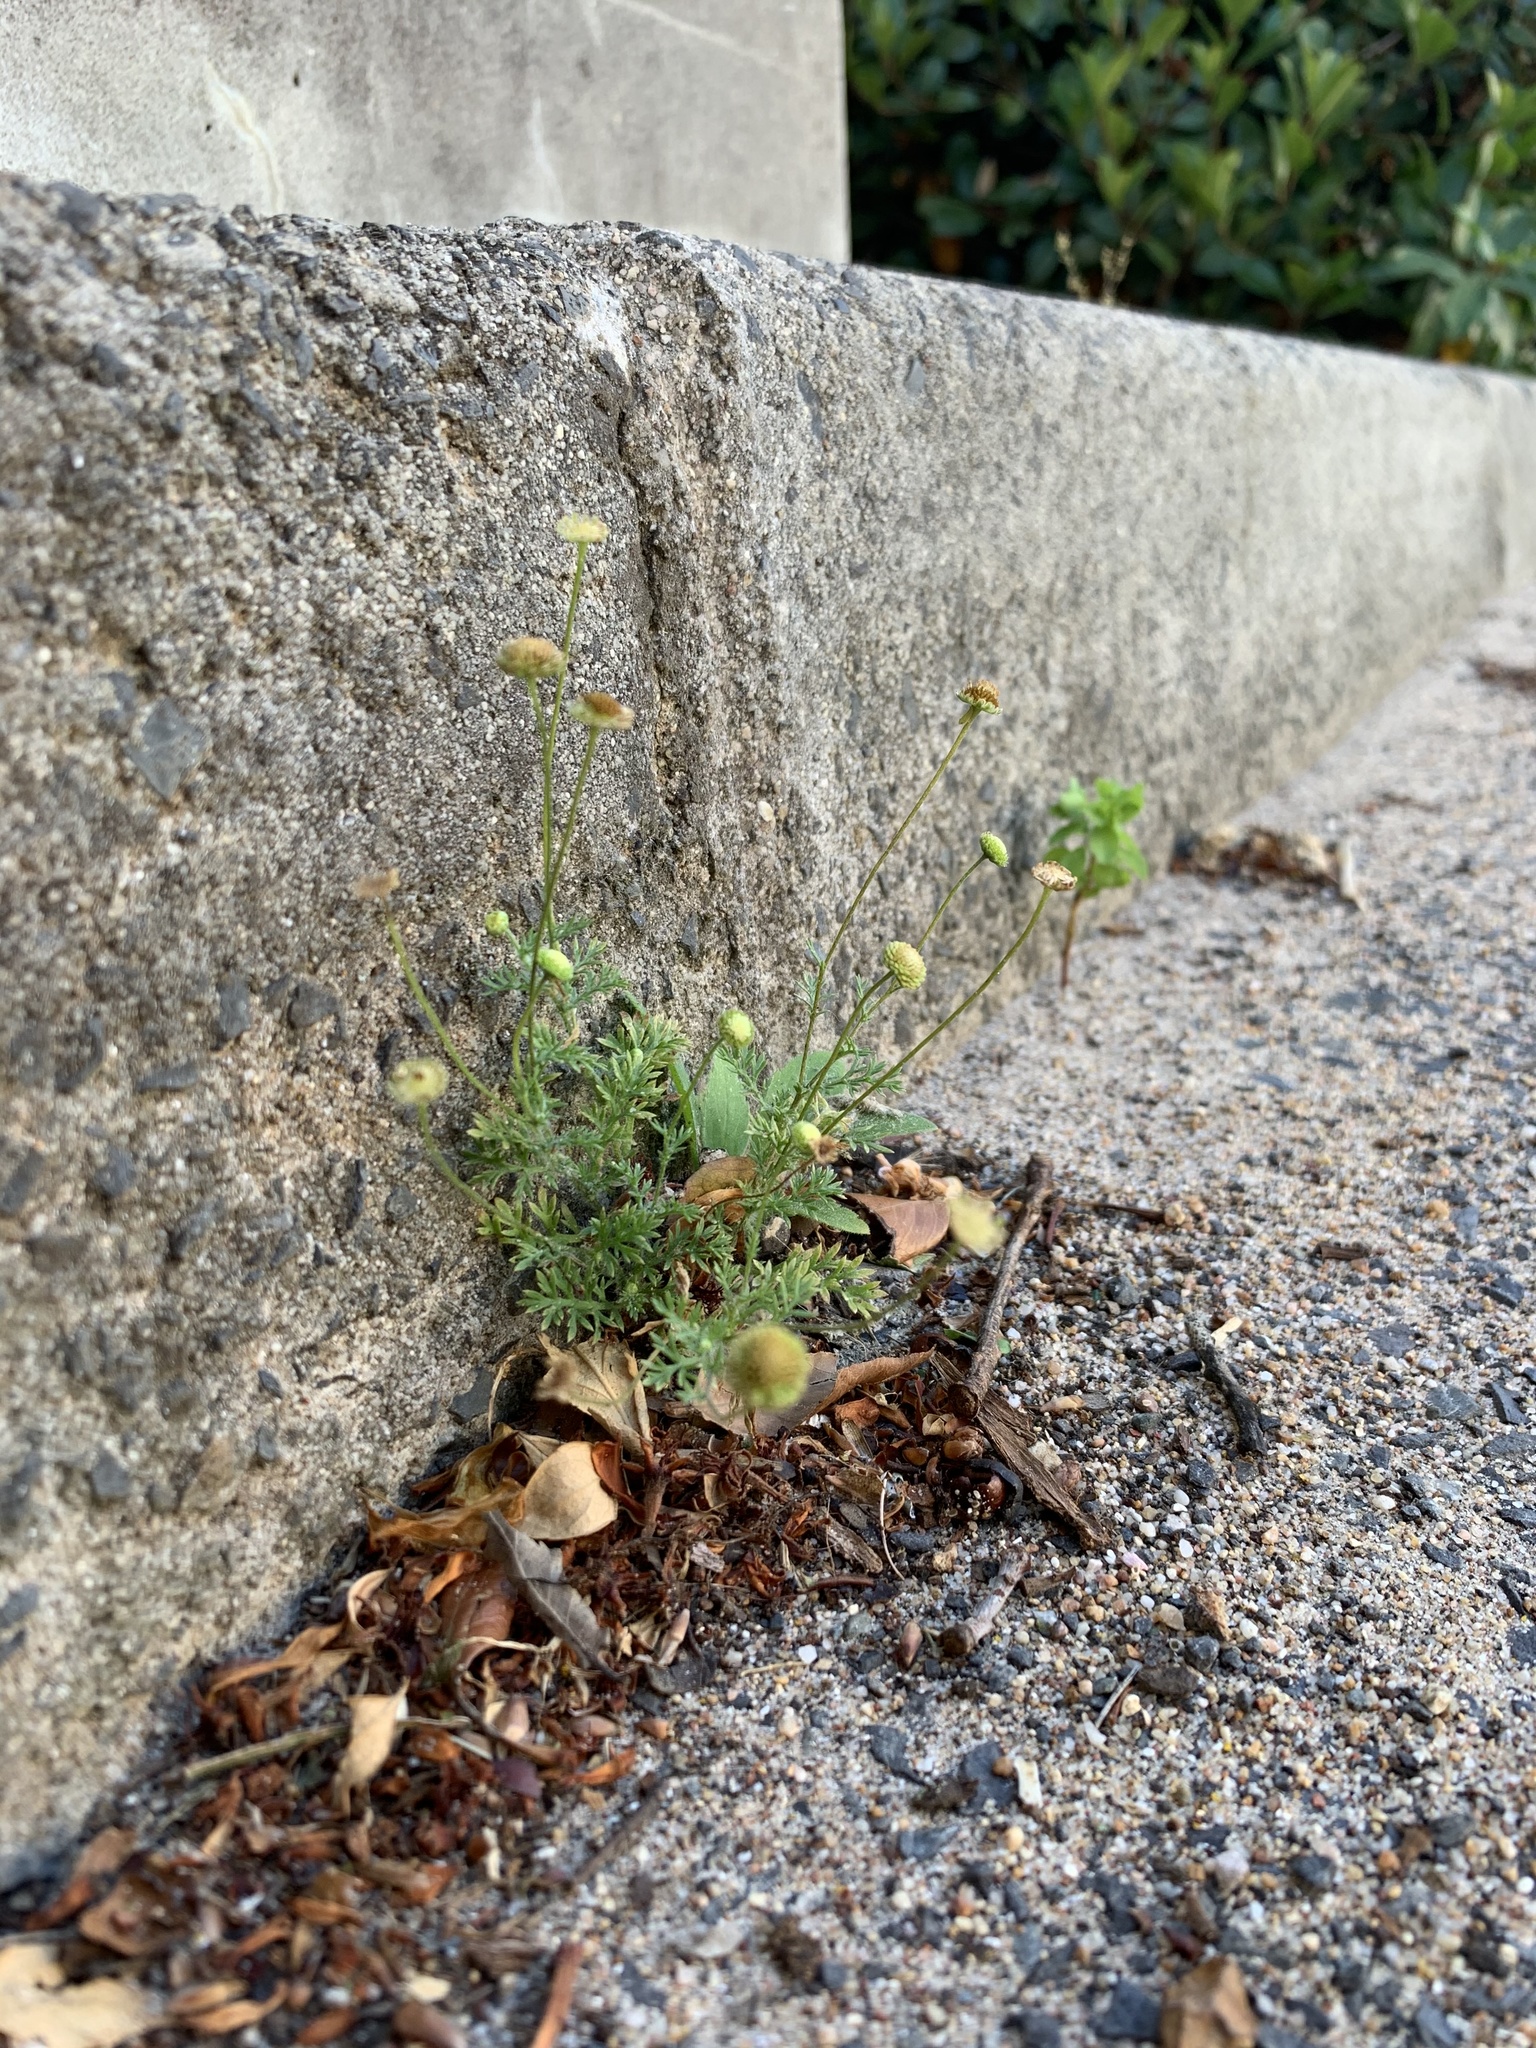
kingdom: Plantae
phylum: Tracheophyta
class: Magnoliopsida
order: Asterales
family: Asteraceae
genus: Cotula
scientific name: Cotula australis
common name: Australian waterbuttons
